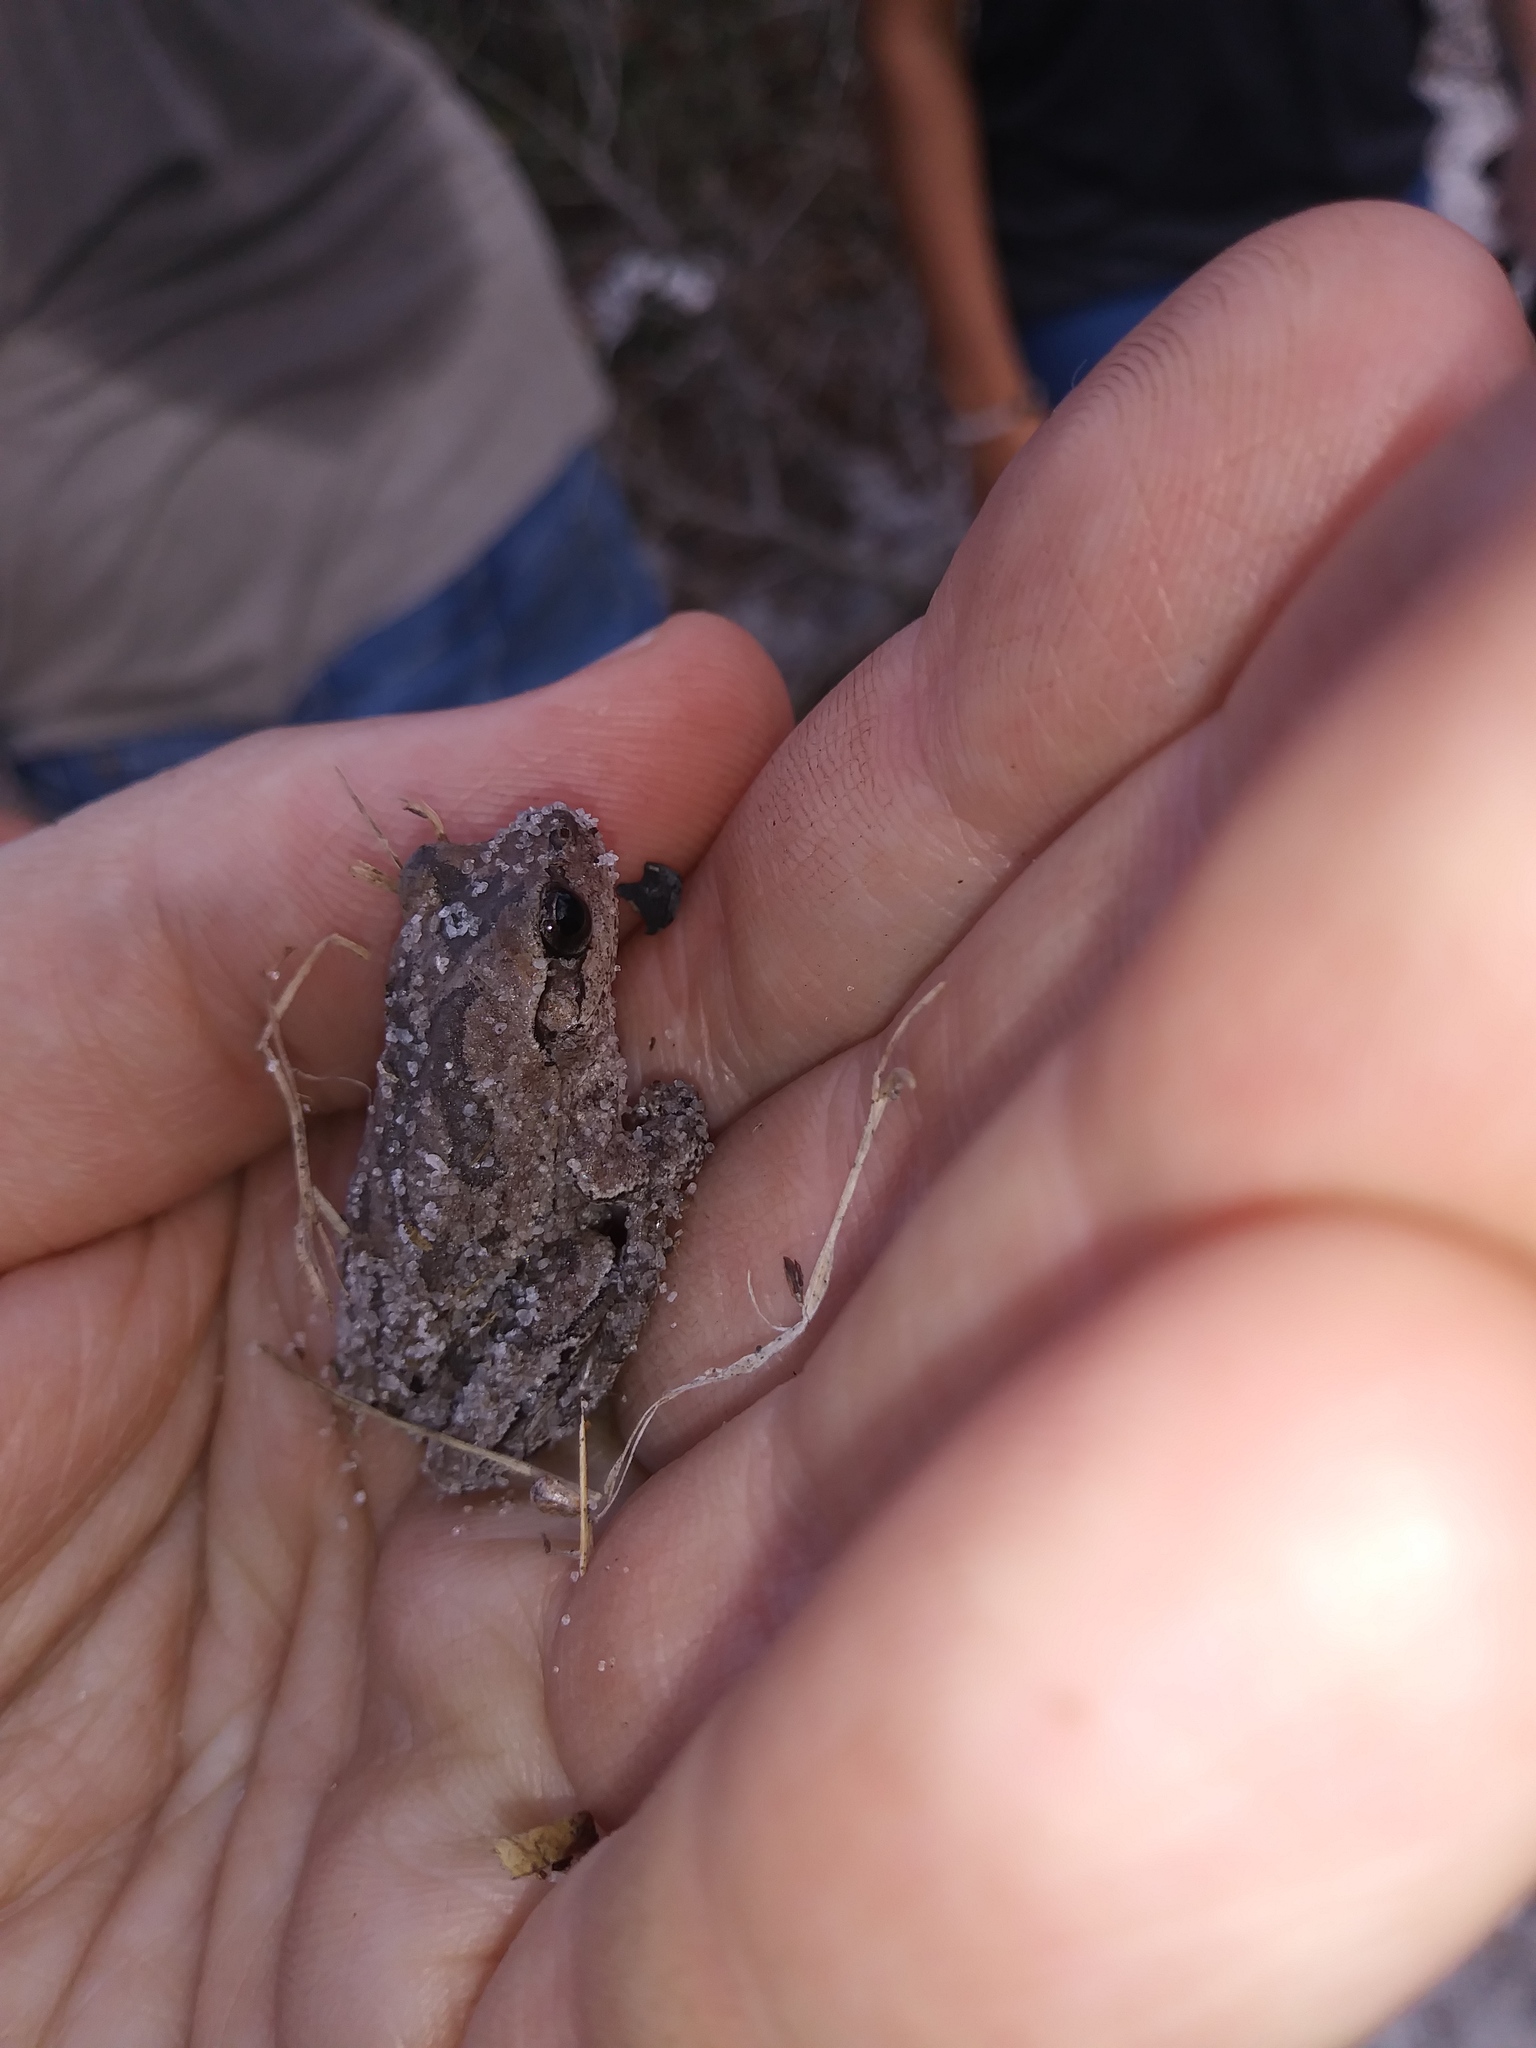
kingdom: Animalia
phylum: Chordata
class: Amphibia
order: Anura
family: Hylidae
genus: Hyla
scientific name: Hyla femoralis
